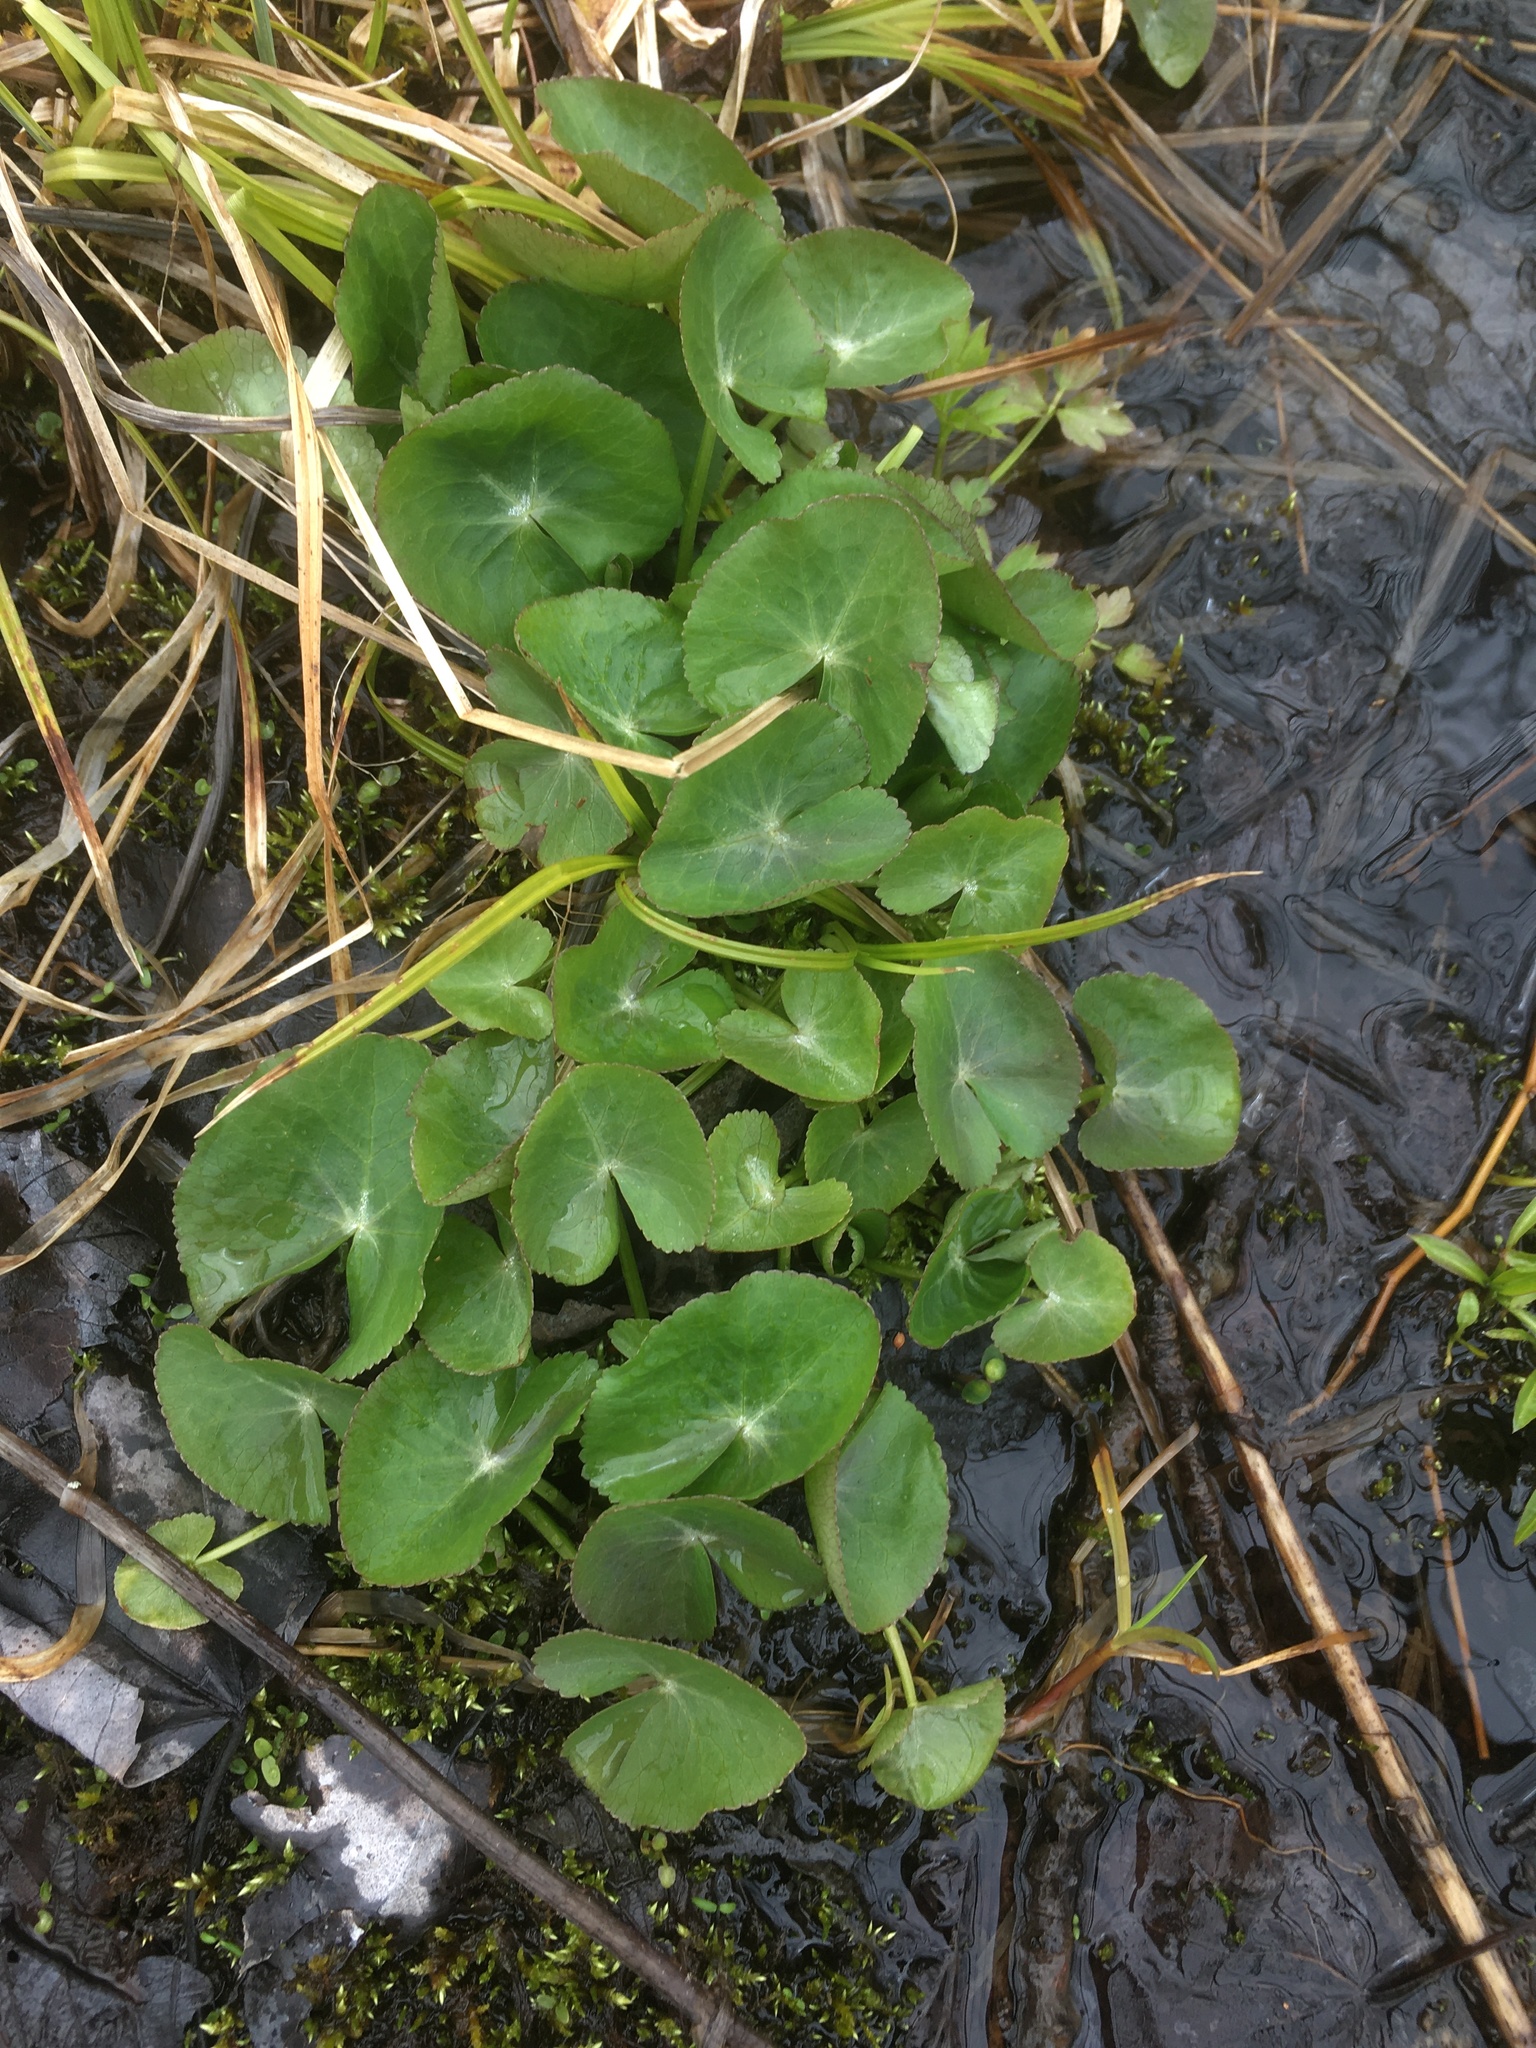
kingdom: Plantae
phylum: Tracheophyta
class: Magnoliopsida
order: Ranunculales
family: Ranunculaceae
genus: Caltha
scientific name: Caltha palustris
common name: Marsh marigold
